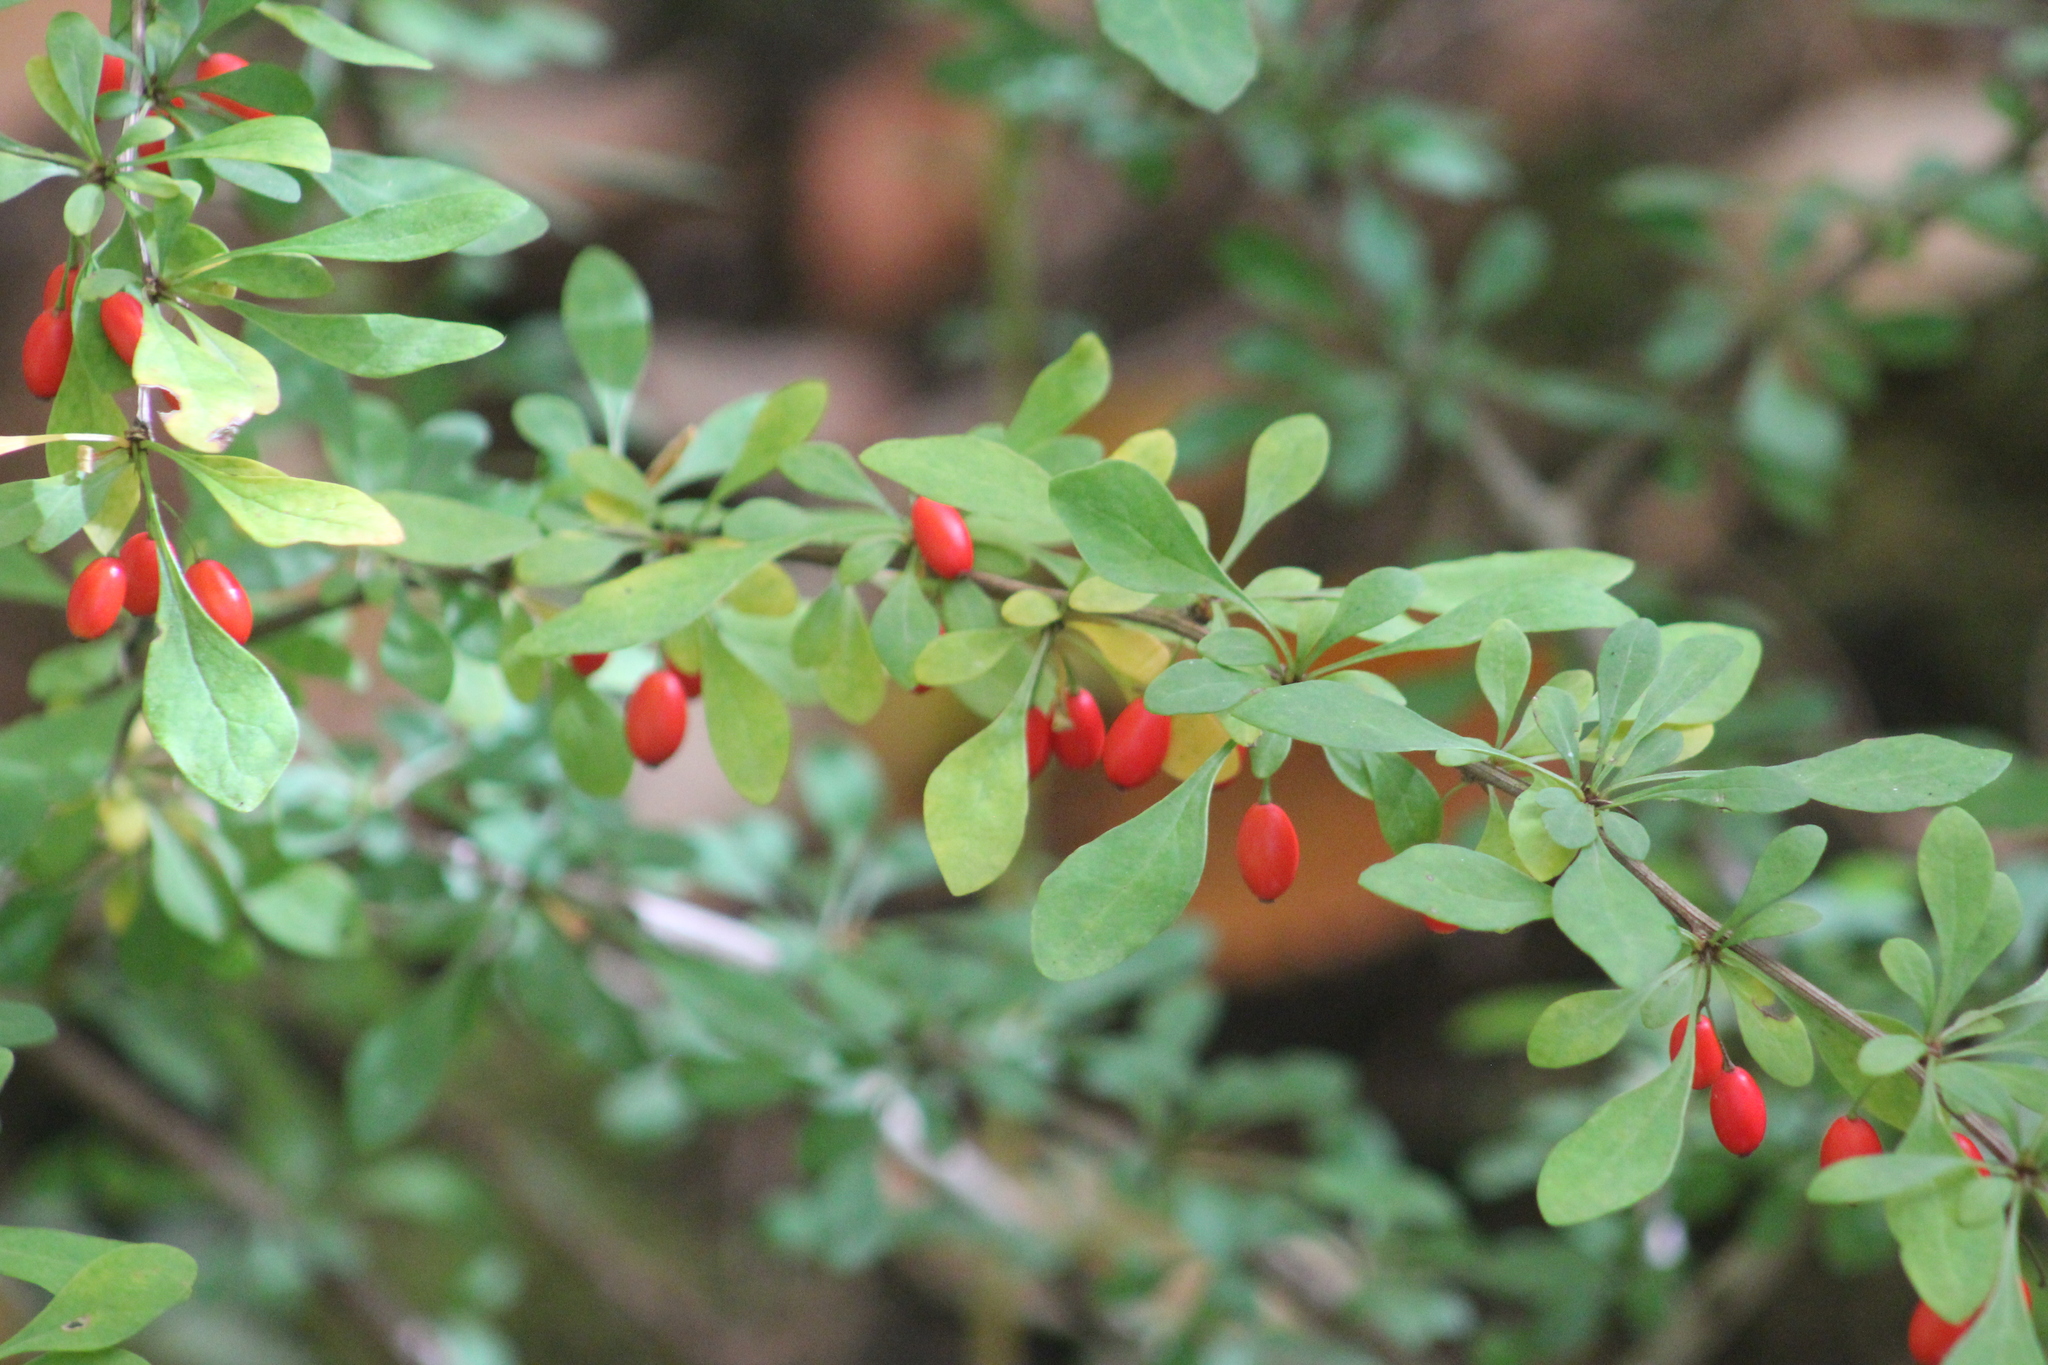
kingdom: Plantae
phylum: Tracheophyta
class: Magnoliopsida
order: Ranunculales
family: Berberidaceae
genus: Berberis
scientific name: Berberis thunbergii
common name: Japanese barberry
